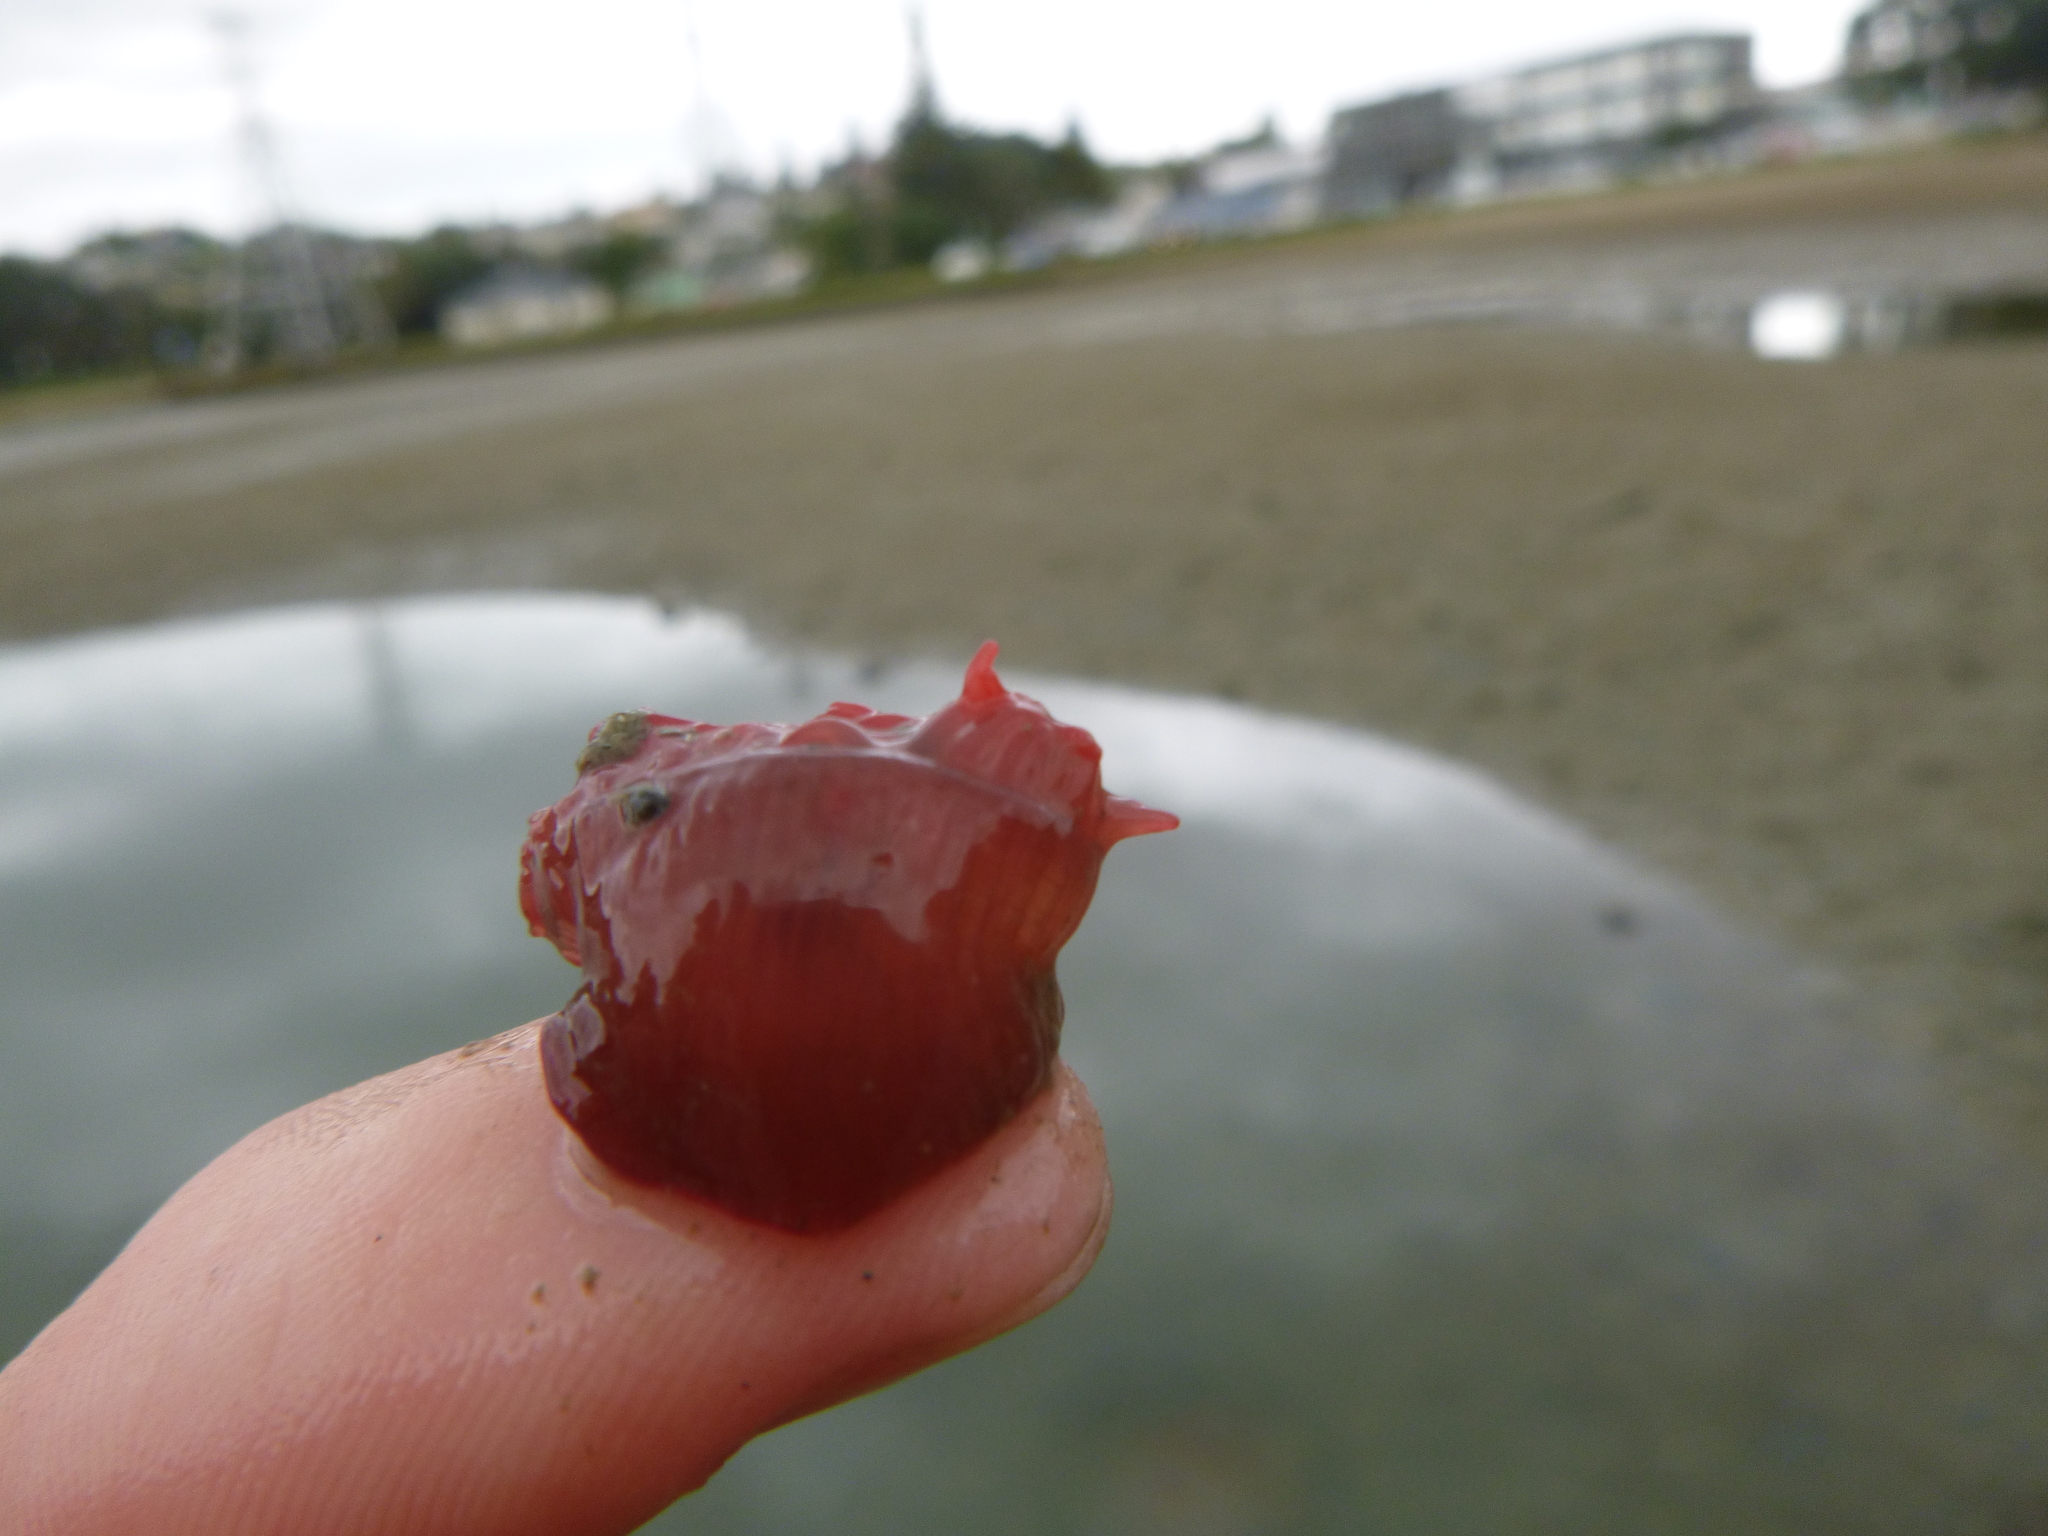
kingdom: Animalia
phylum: Cnidaria
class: Anthozoa
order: Actiniaria
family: Actiniidae
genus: Actinia
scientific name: Actinia tenebrosa
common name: Waratah anemone
